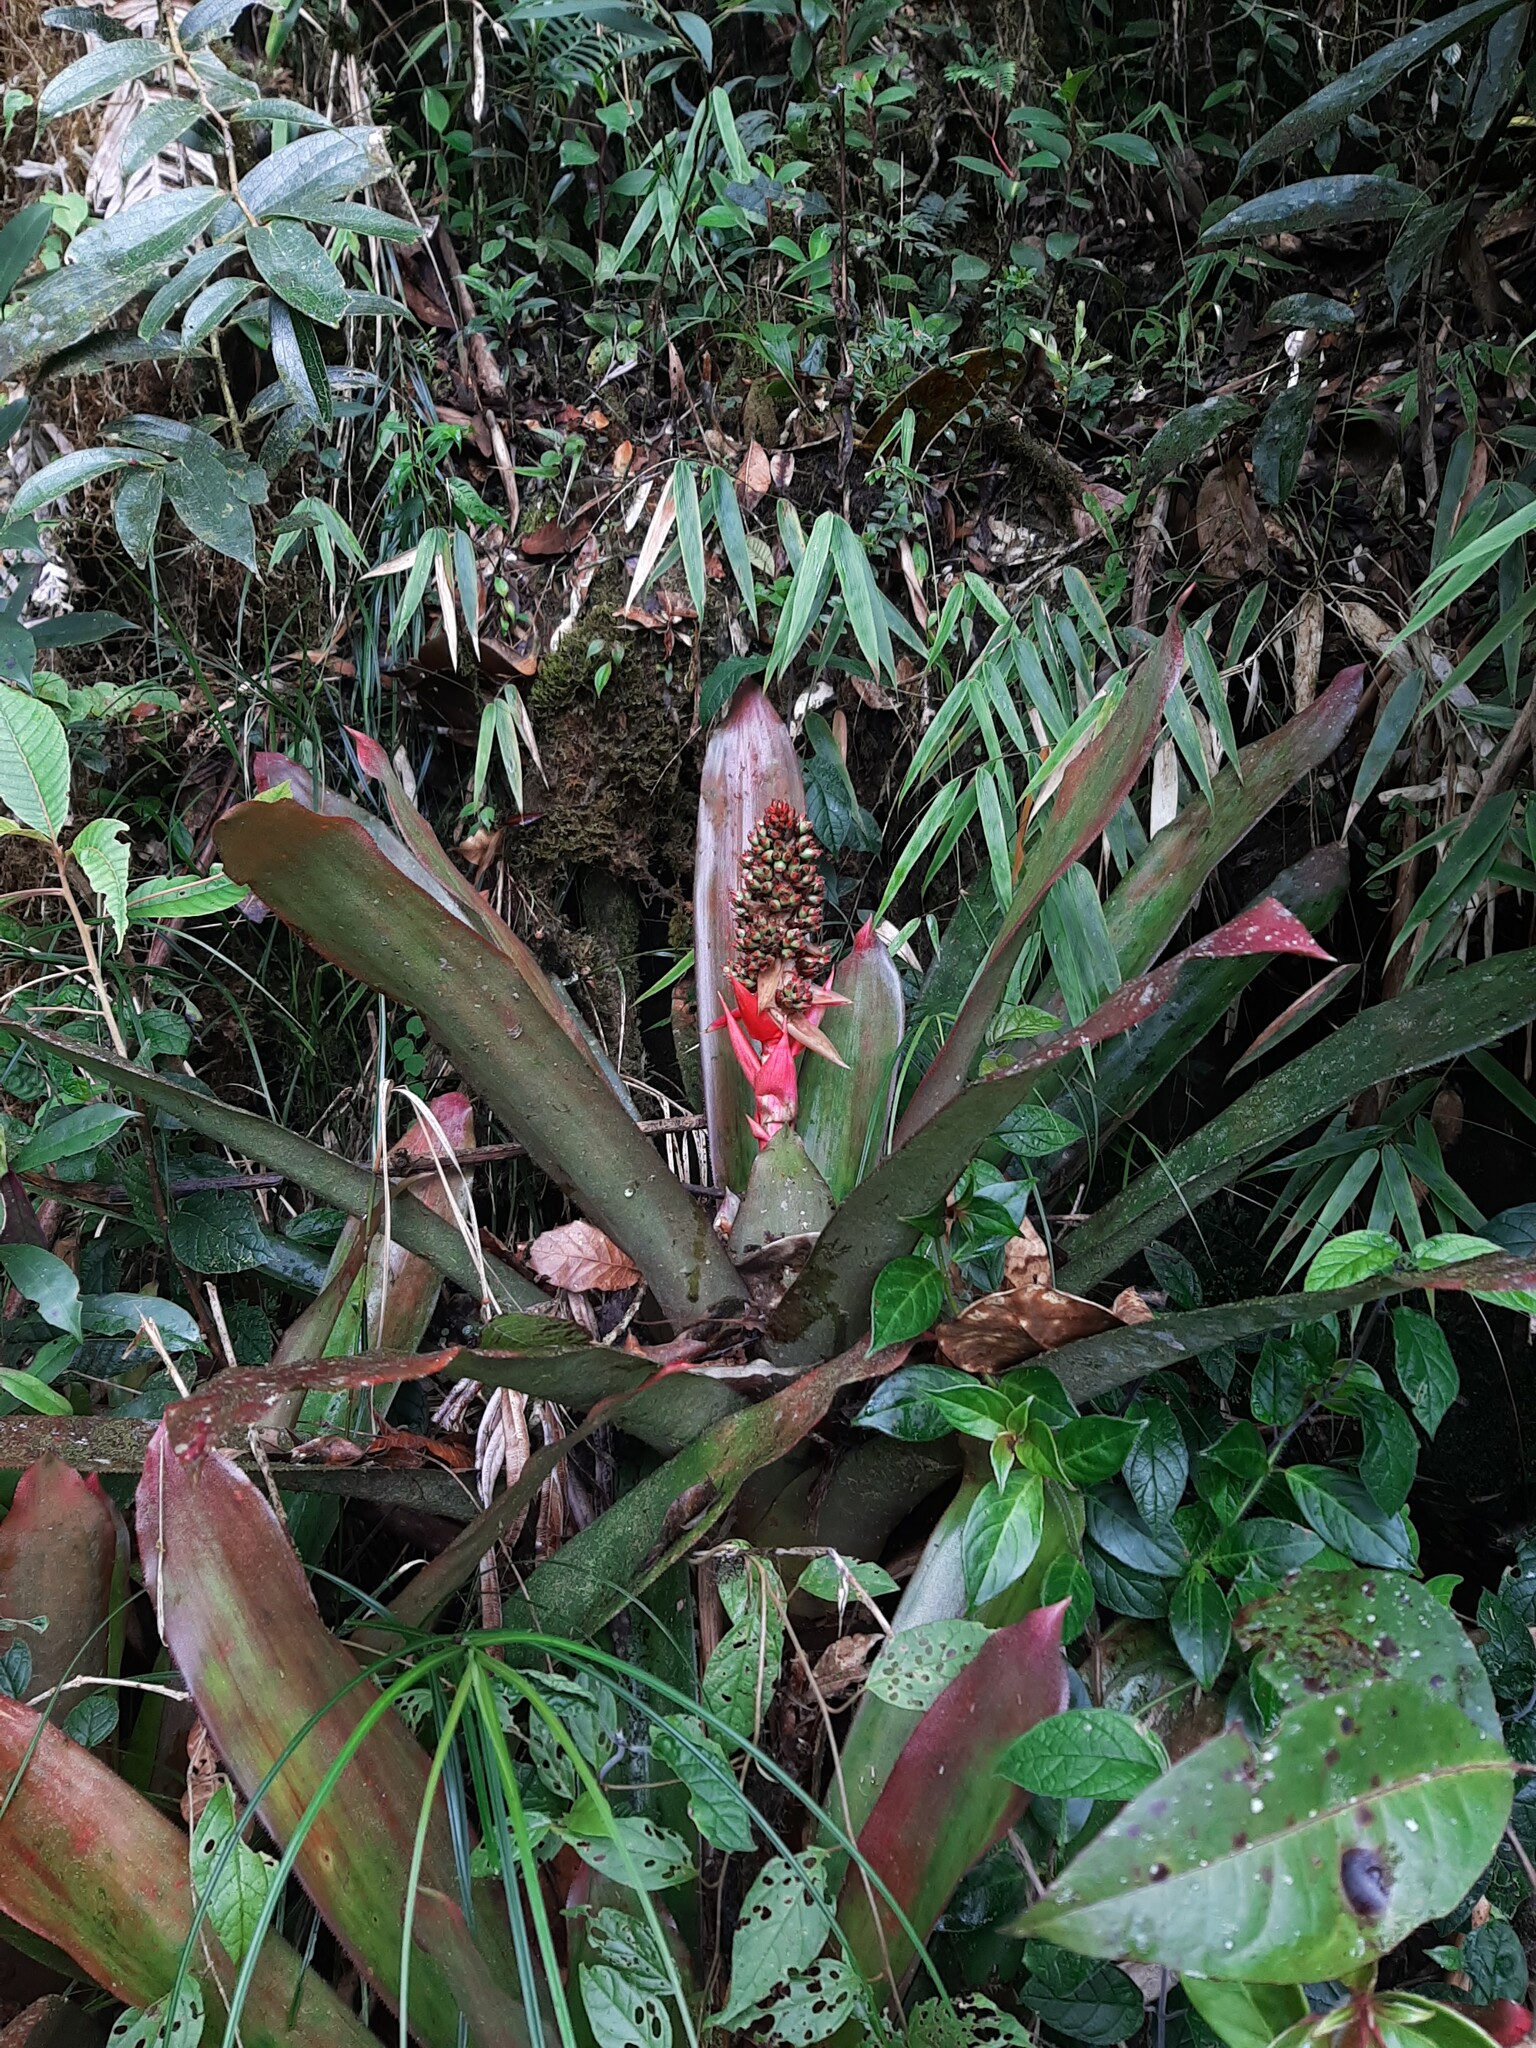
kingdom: Plantae
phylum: Tracheophyta
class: Liliopsida
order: Poales
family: Bromeliaceae
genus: Hohenbergiopsis
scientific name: Hohenbergiopsis guatemalensis
